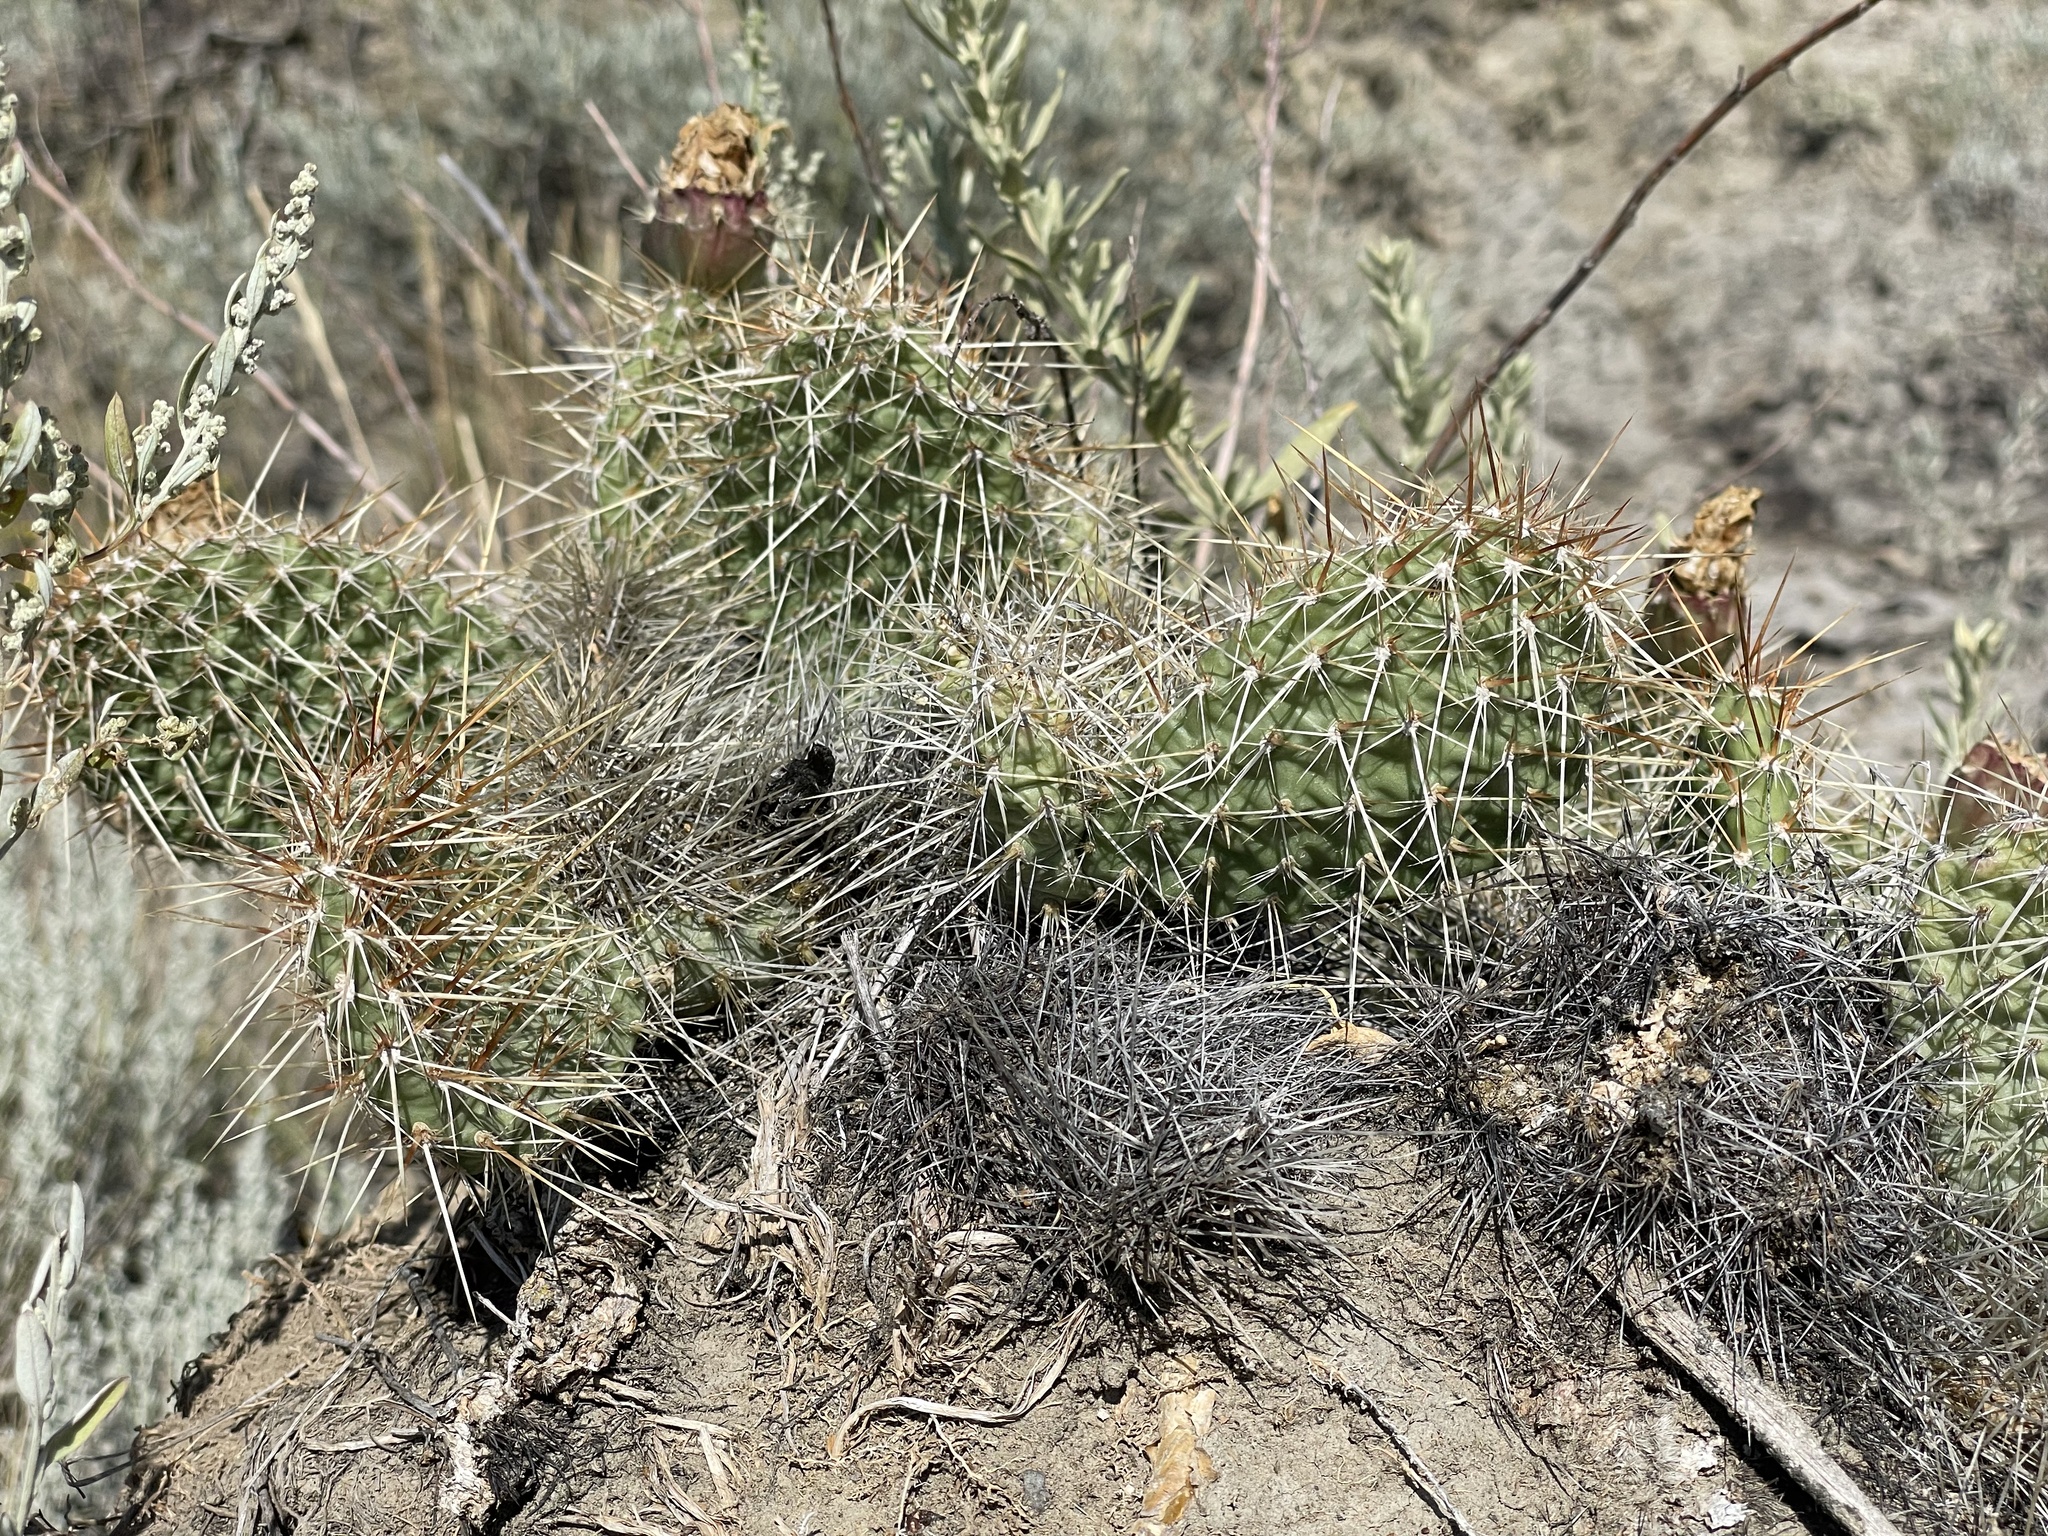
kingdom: Plantae
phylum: Tracheophyta
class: Magnoliopsida
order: Caryophyllales
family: Cactaceae
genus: Opuntia
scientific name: Opuntia polyacantha
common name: Plains prickly-pear
